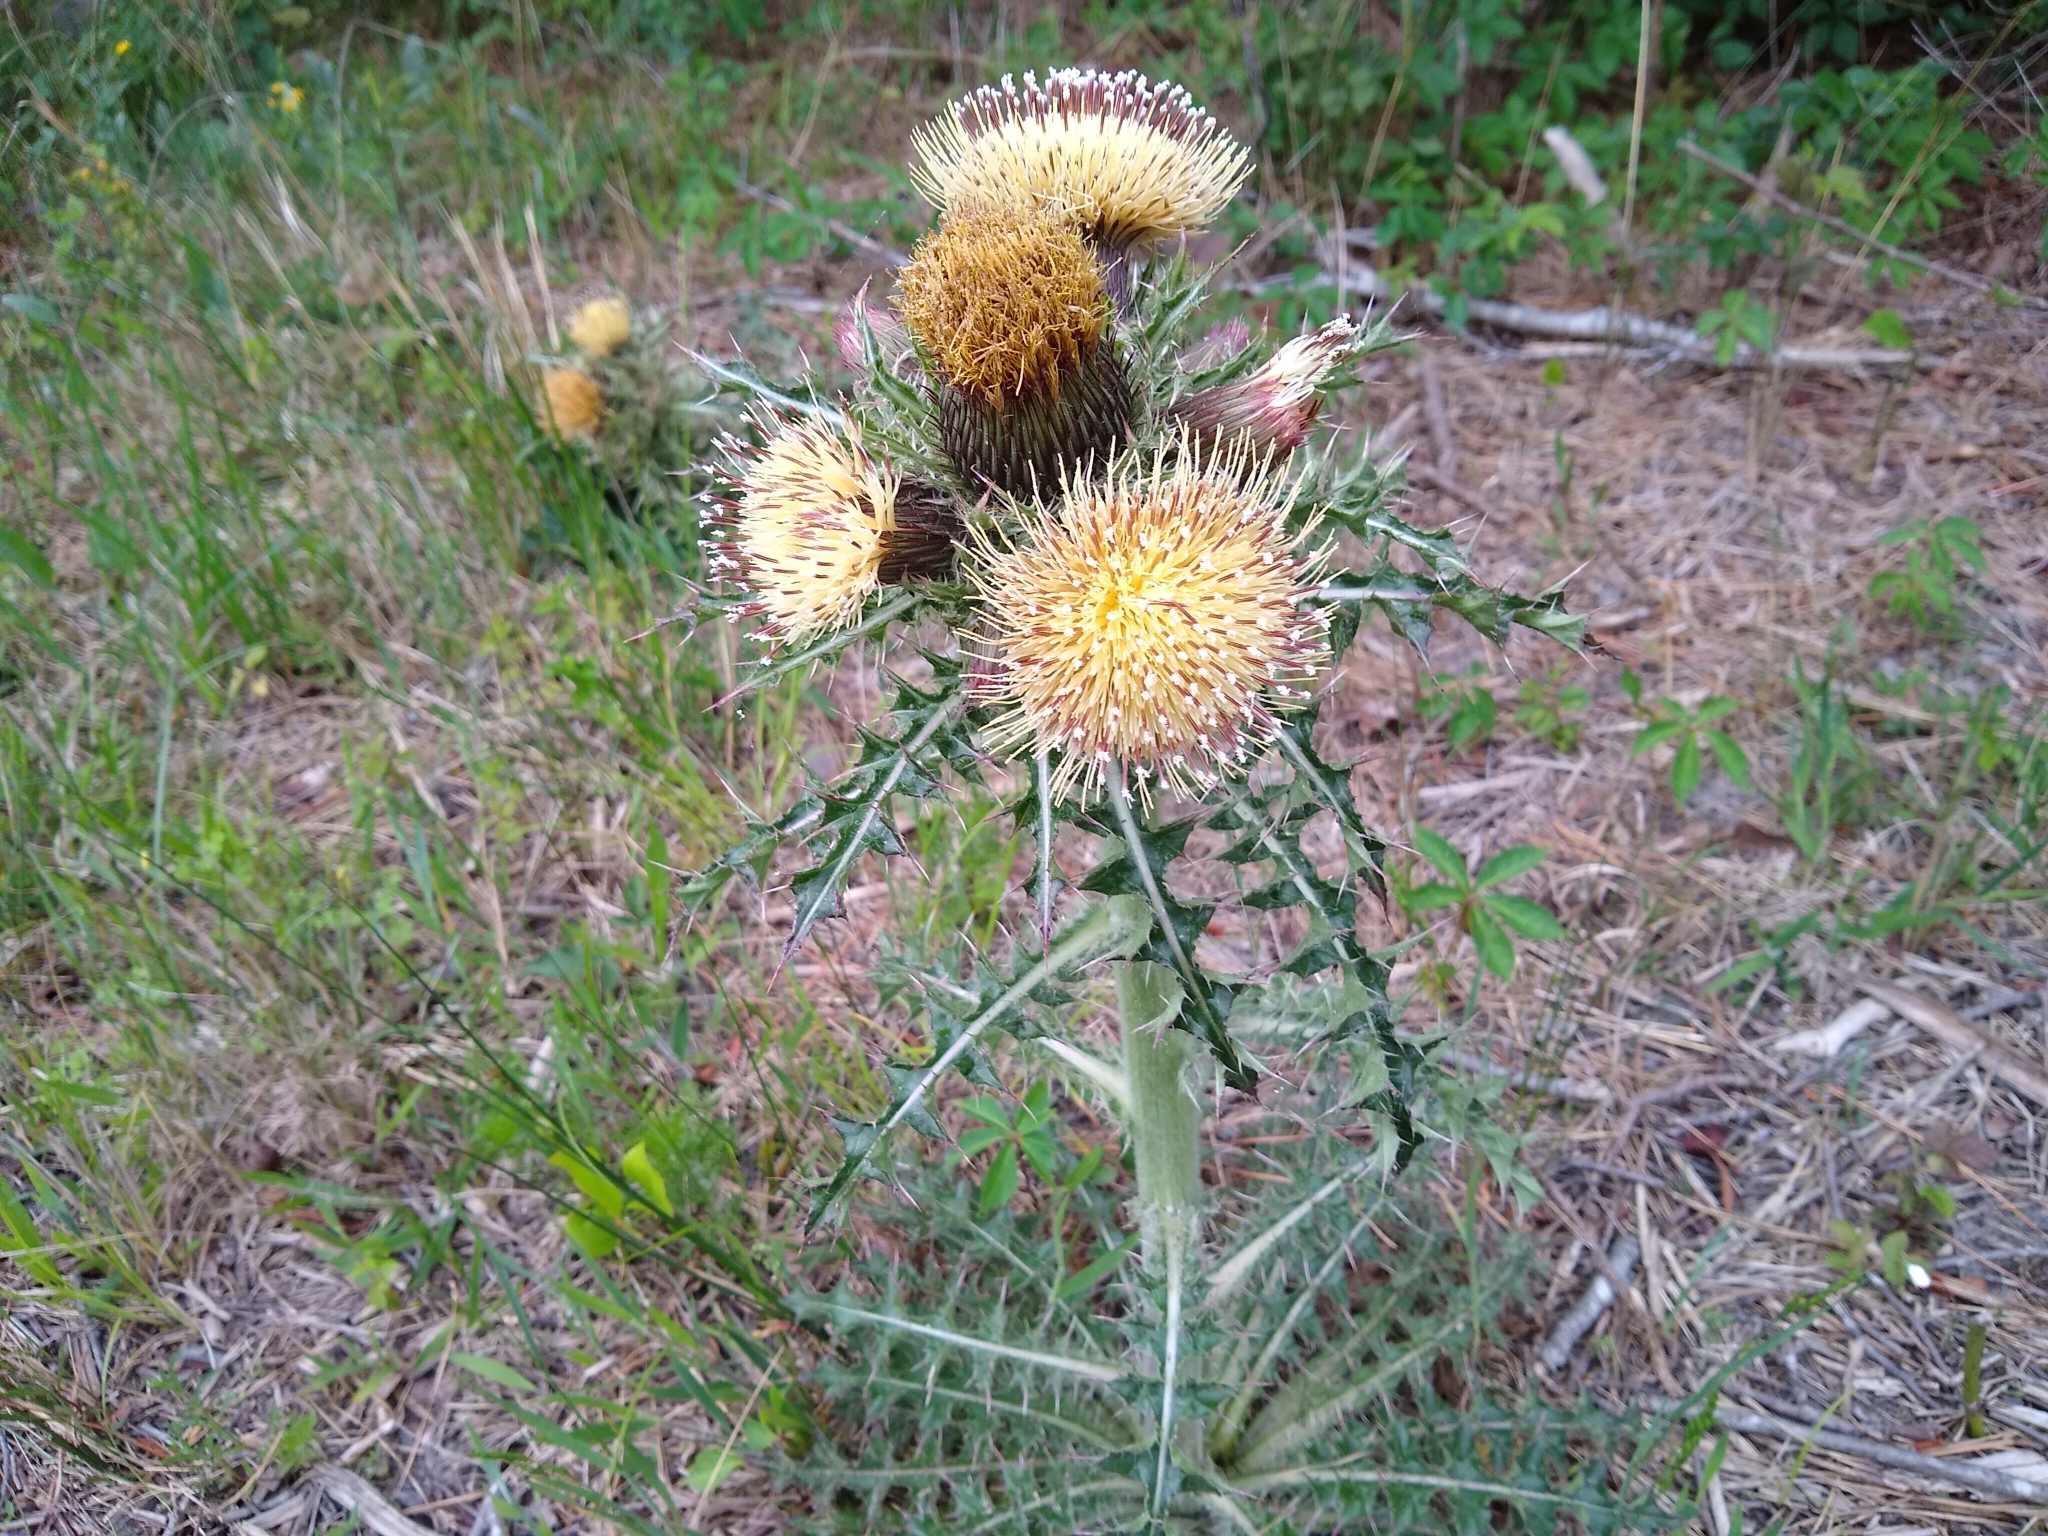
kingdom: Plantae
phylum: Tracheophyta
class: Magnoliopsida
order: Asterales
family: Asteraceae
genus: Cirsium
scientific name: Cirsium horridulum
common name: Bristly thistle
